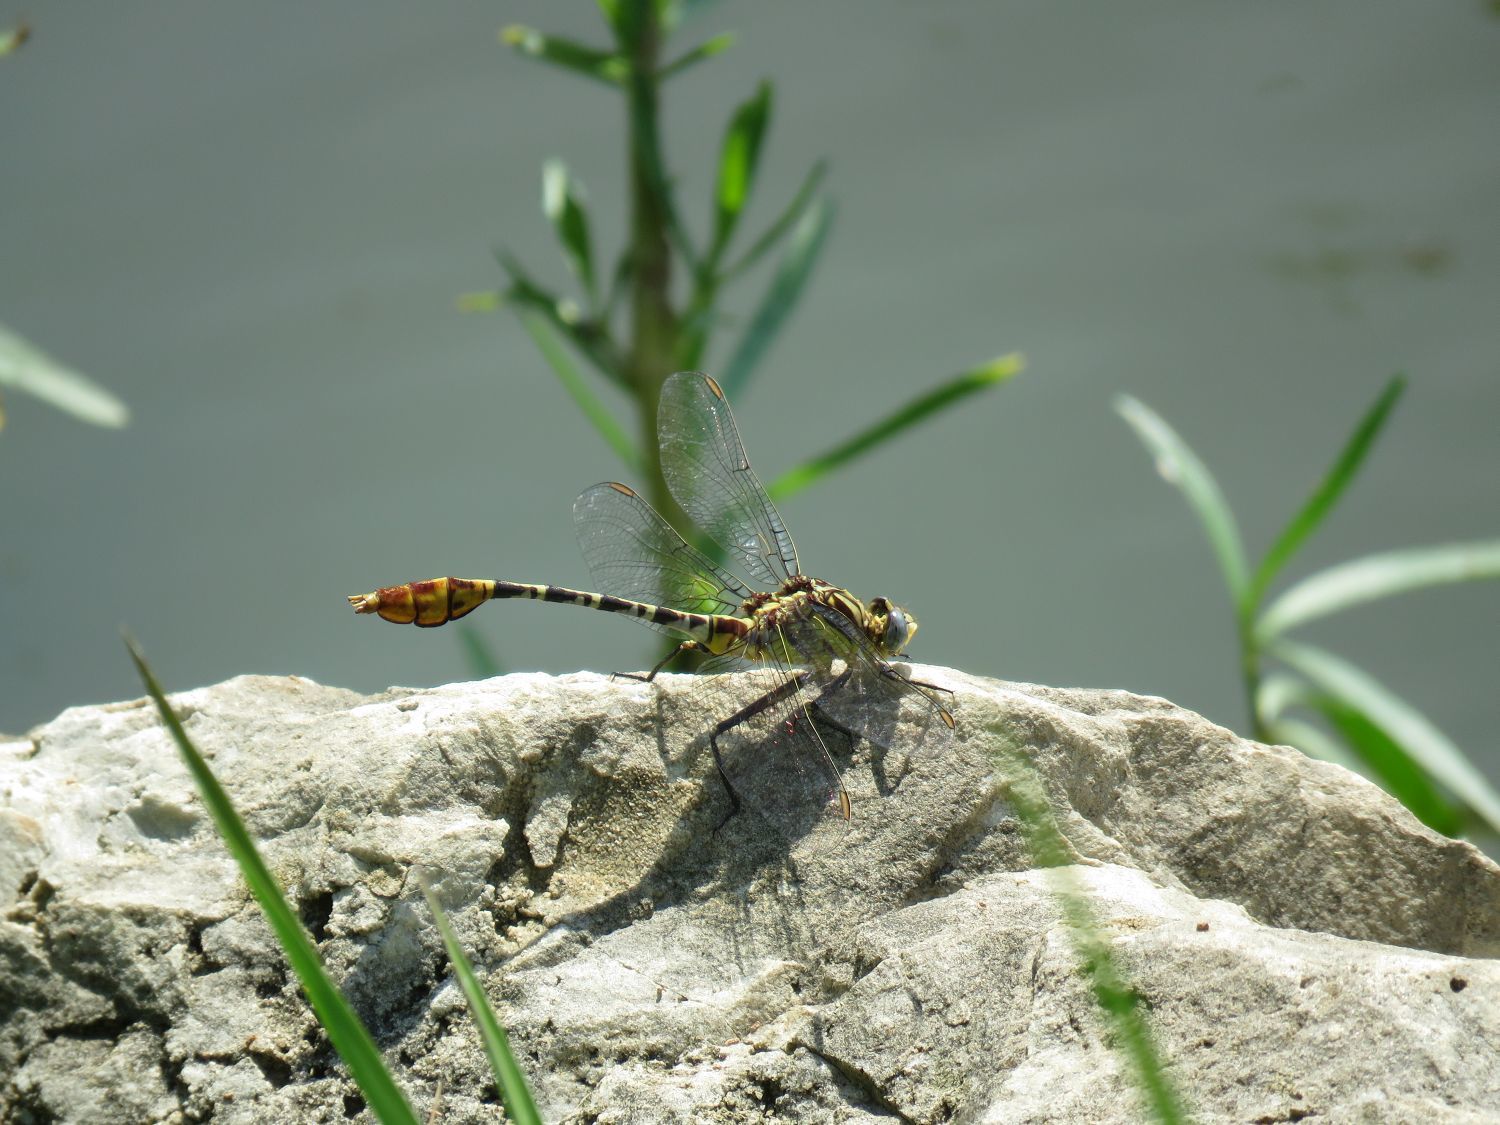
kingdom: Animalia
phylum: Arthropoda
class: Insecta
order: Odonata
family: Gomphidae
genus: Dromogomphus
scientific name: Dromogomphus spoliatus
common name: Flag-tailed spinyleg
